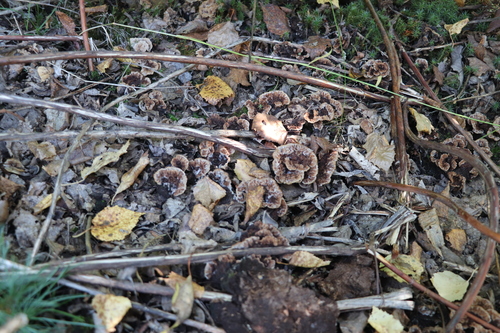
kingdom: Fungi
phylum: Basidiomycota
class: Agaricomycetes
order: Thelephorales
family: Thelephoraceae
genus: Thelephora
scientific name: Thelephora terrestris
